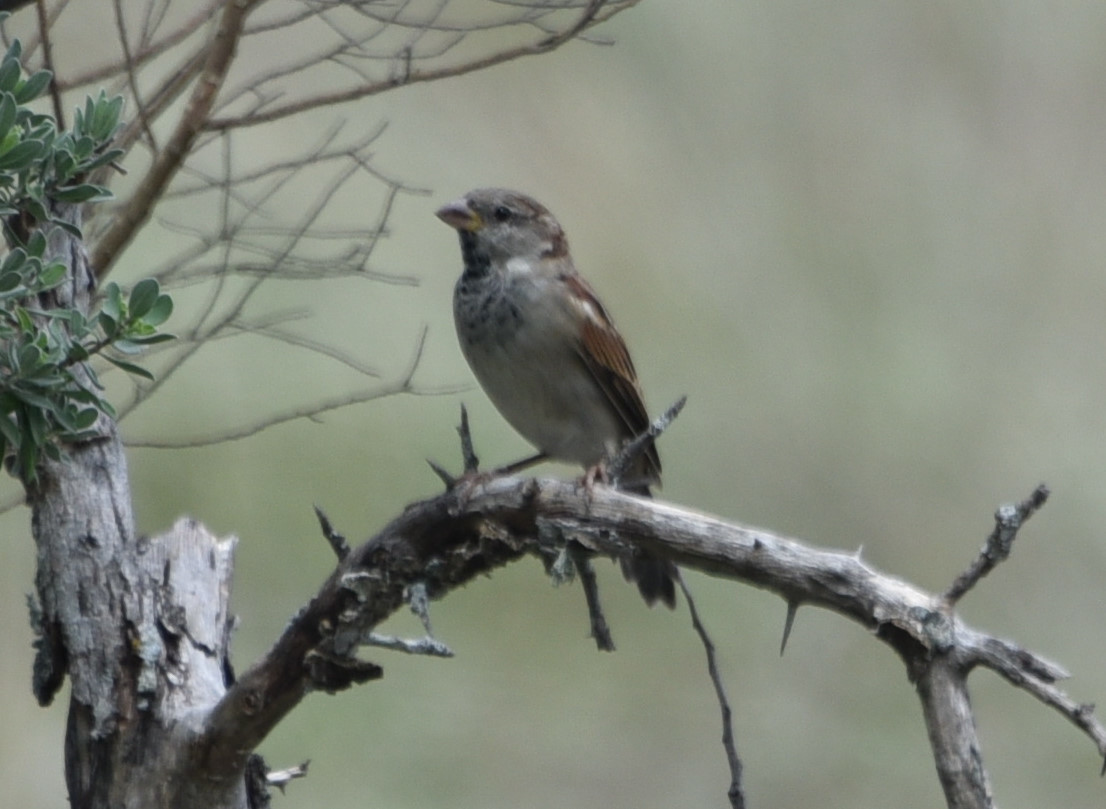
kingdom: Animalia
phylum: Chordata
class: Aves
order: Passeriformes
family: Passeridae
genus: Passer
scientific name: Passer domesticus
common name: House sparrow
